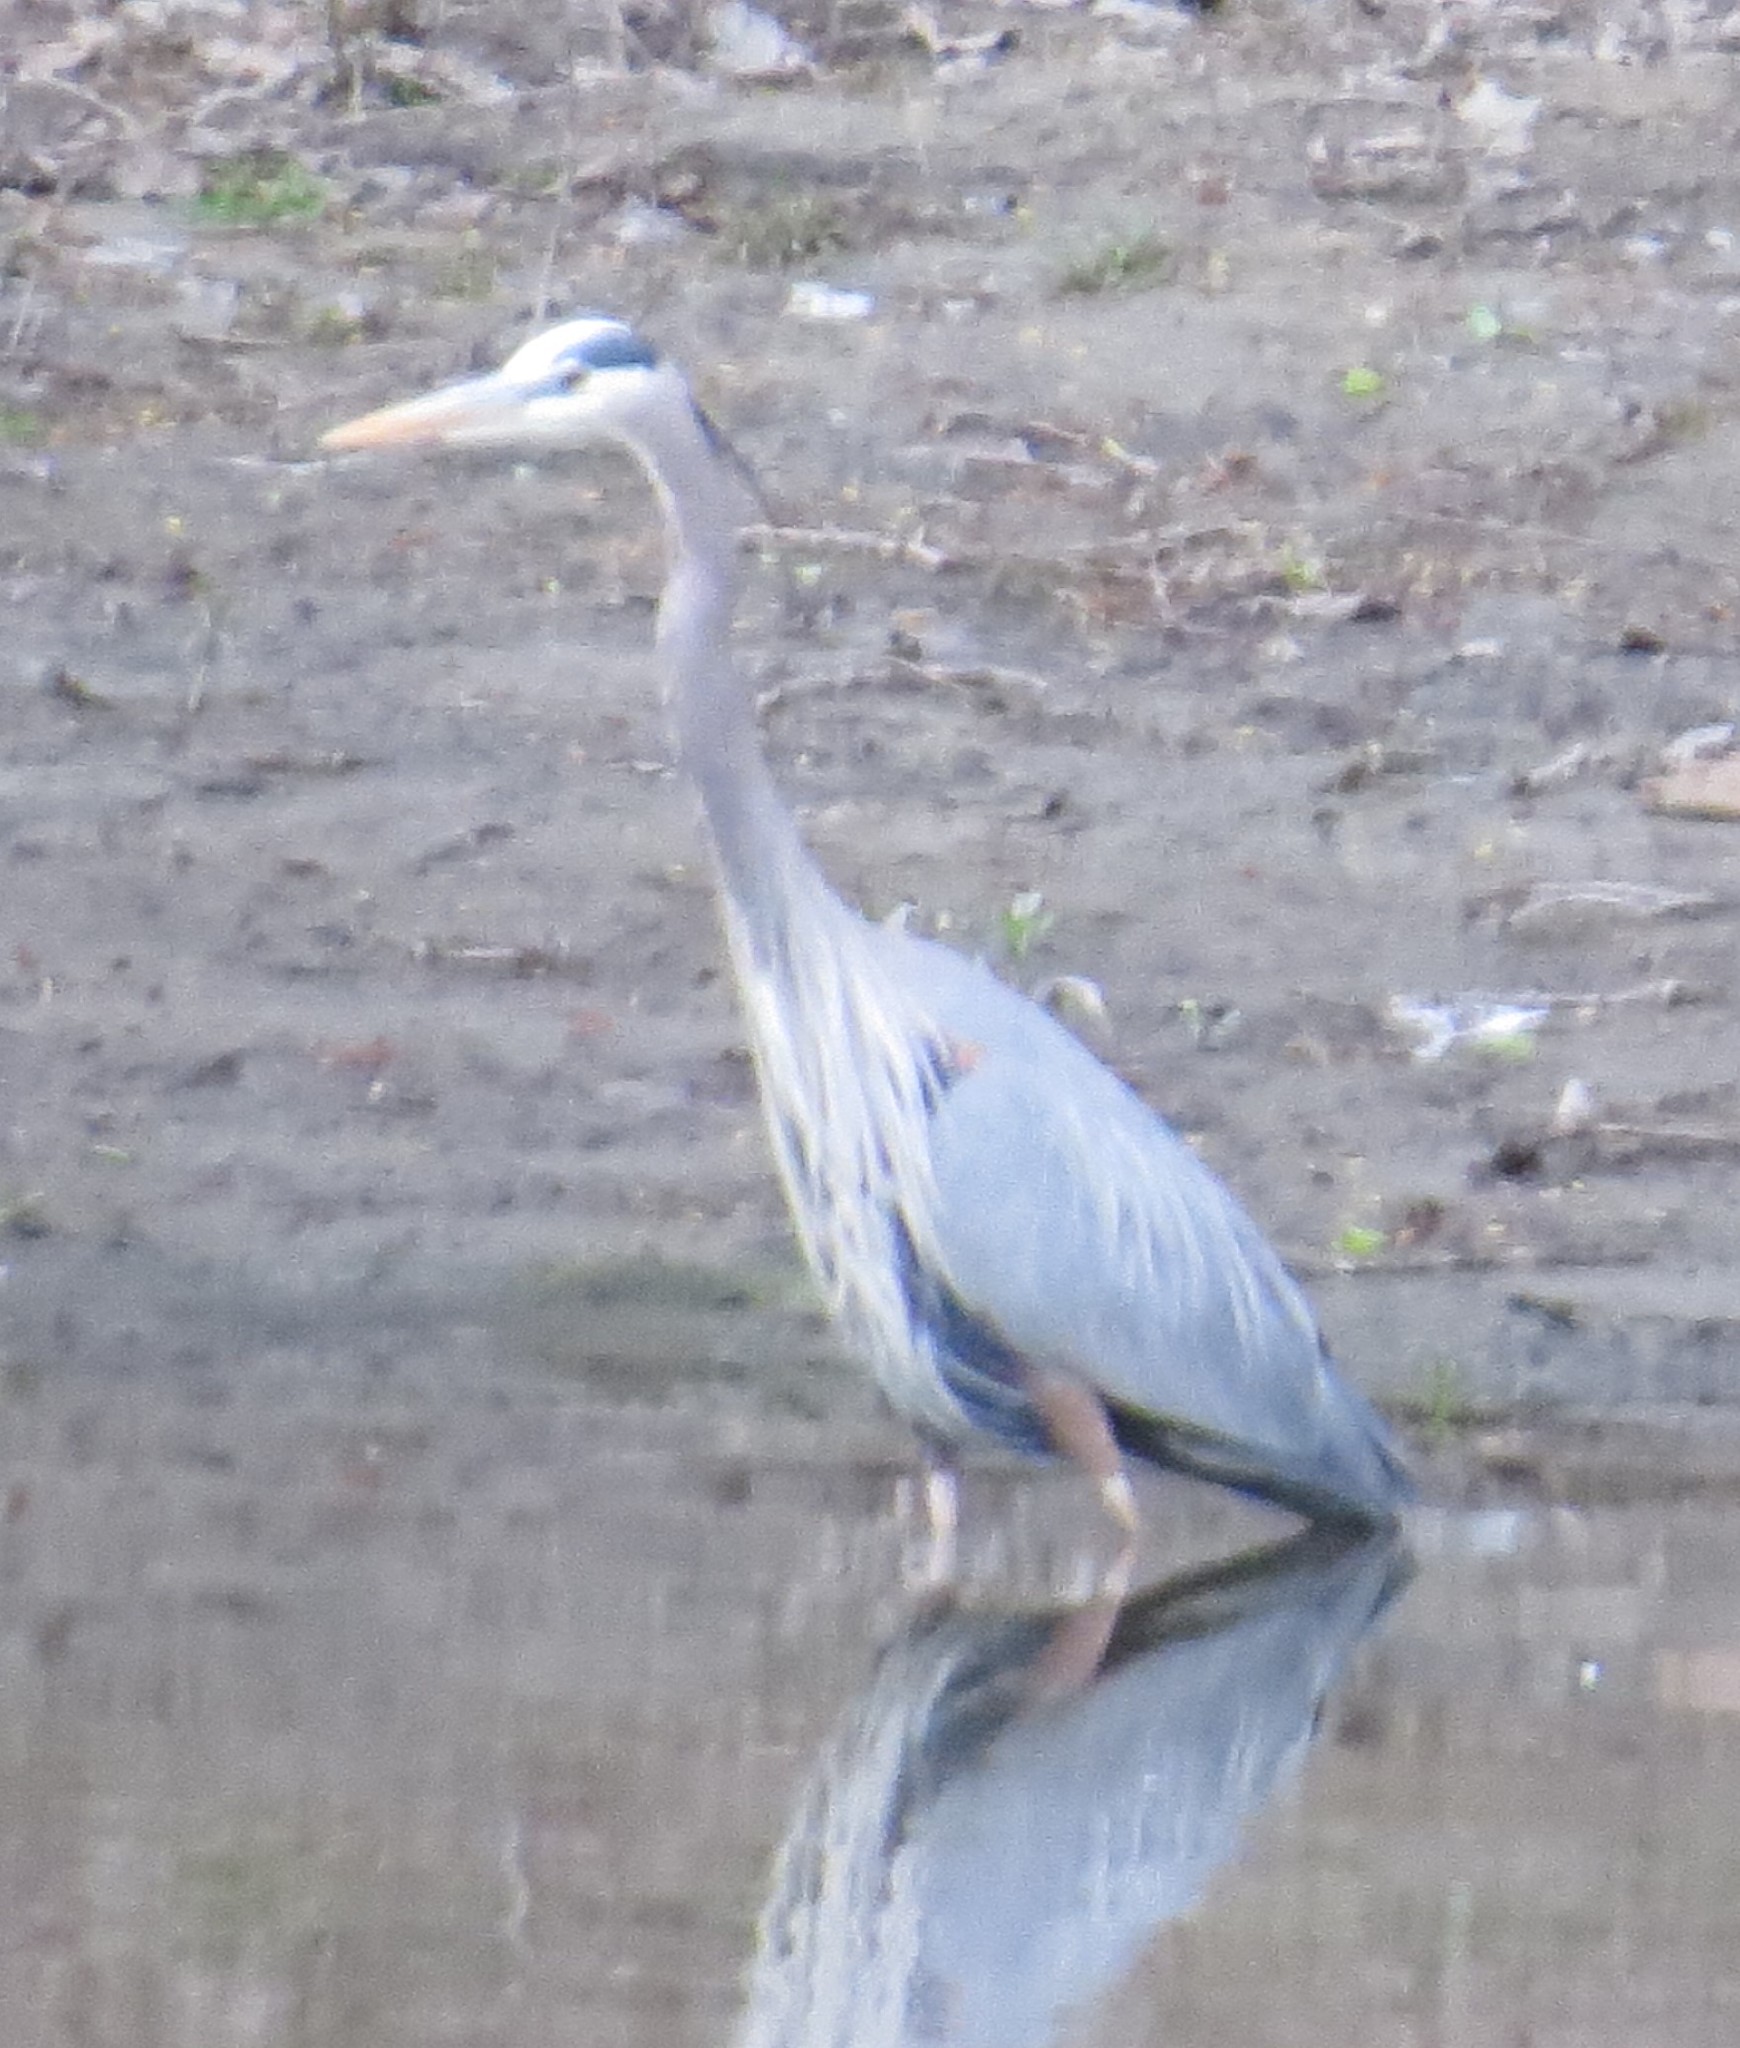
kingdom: Animalia
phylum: Chordata
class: Aves
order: Pelecaniformes
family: Ardeidae
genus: Ardea
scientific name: Ardea herodias
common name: Great blue heron
